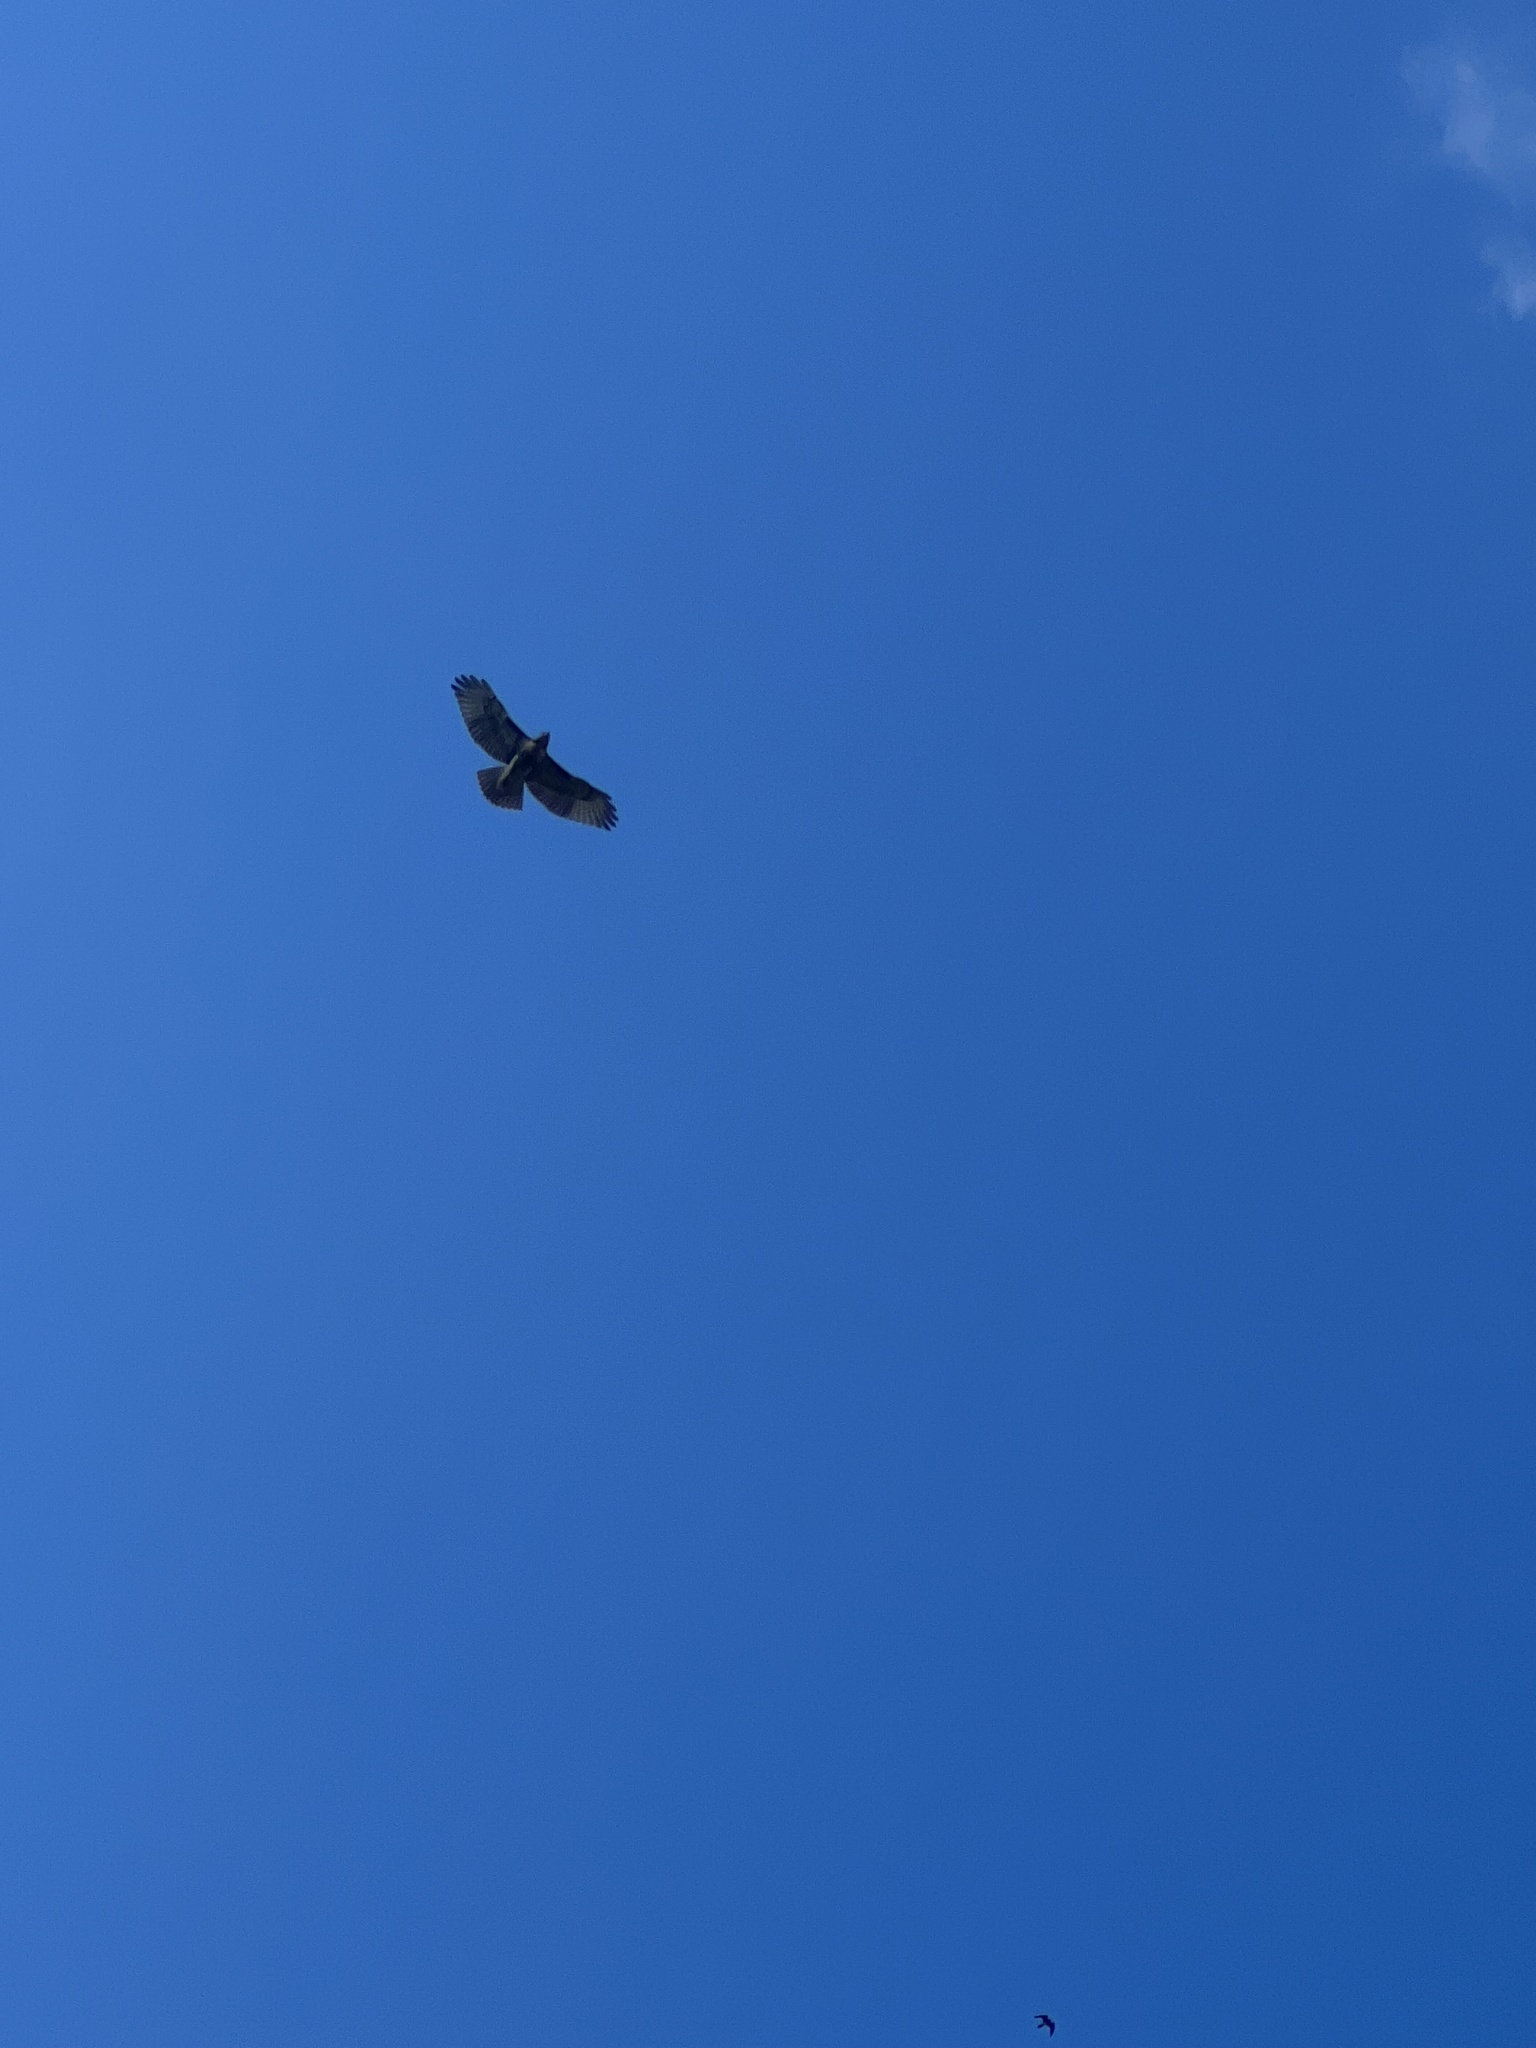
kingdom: Animalia
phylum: Chordata
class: Aves
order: Accipitriformes
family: Accipitridae
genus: Buteo
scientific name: Buteo jamaicensis
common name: Red-tailed hawk
